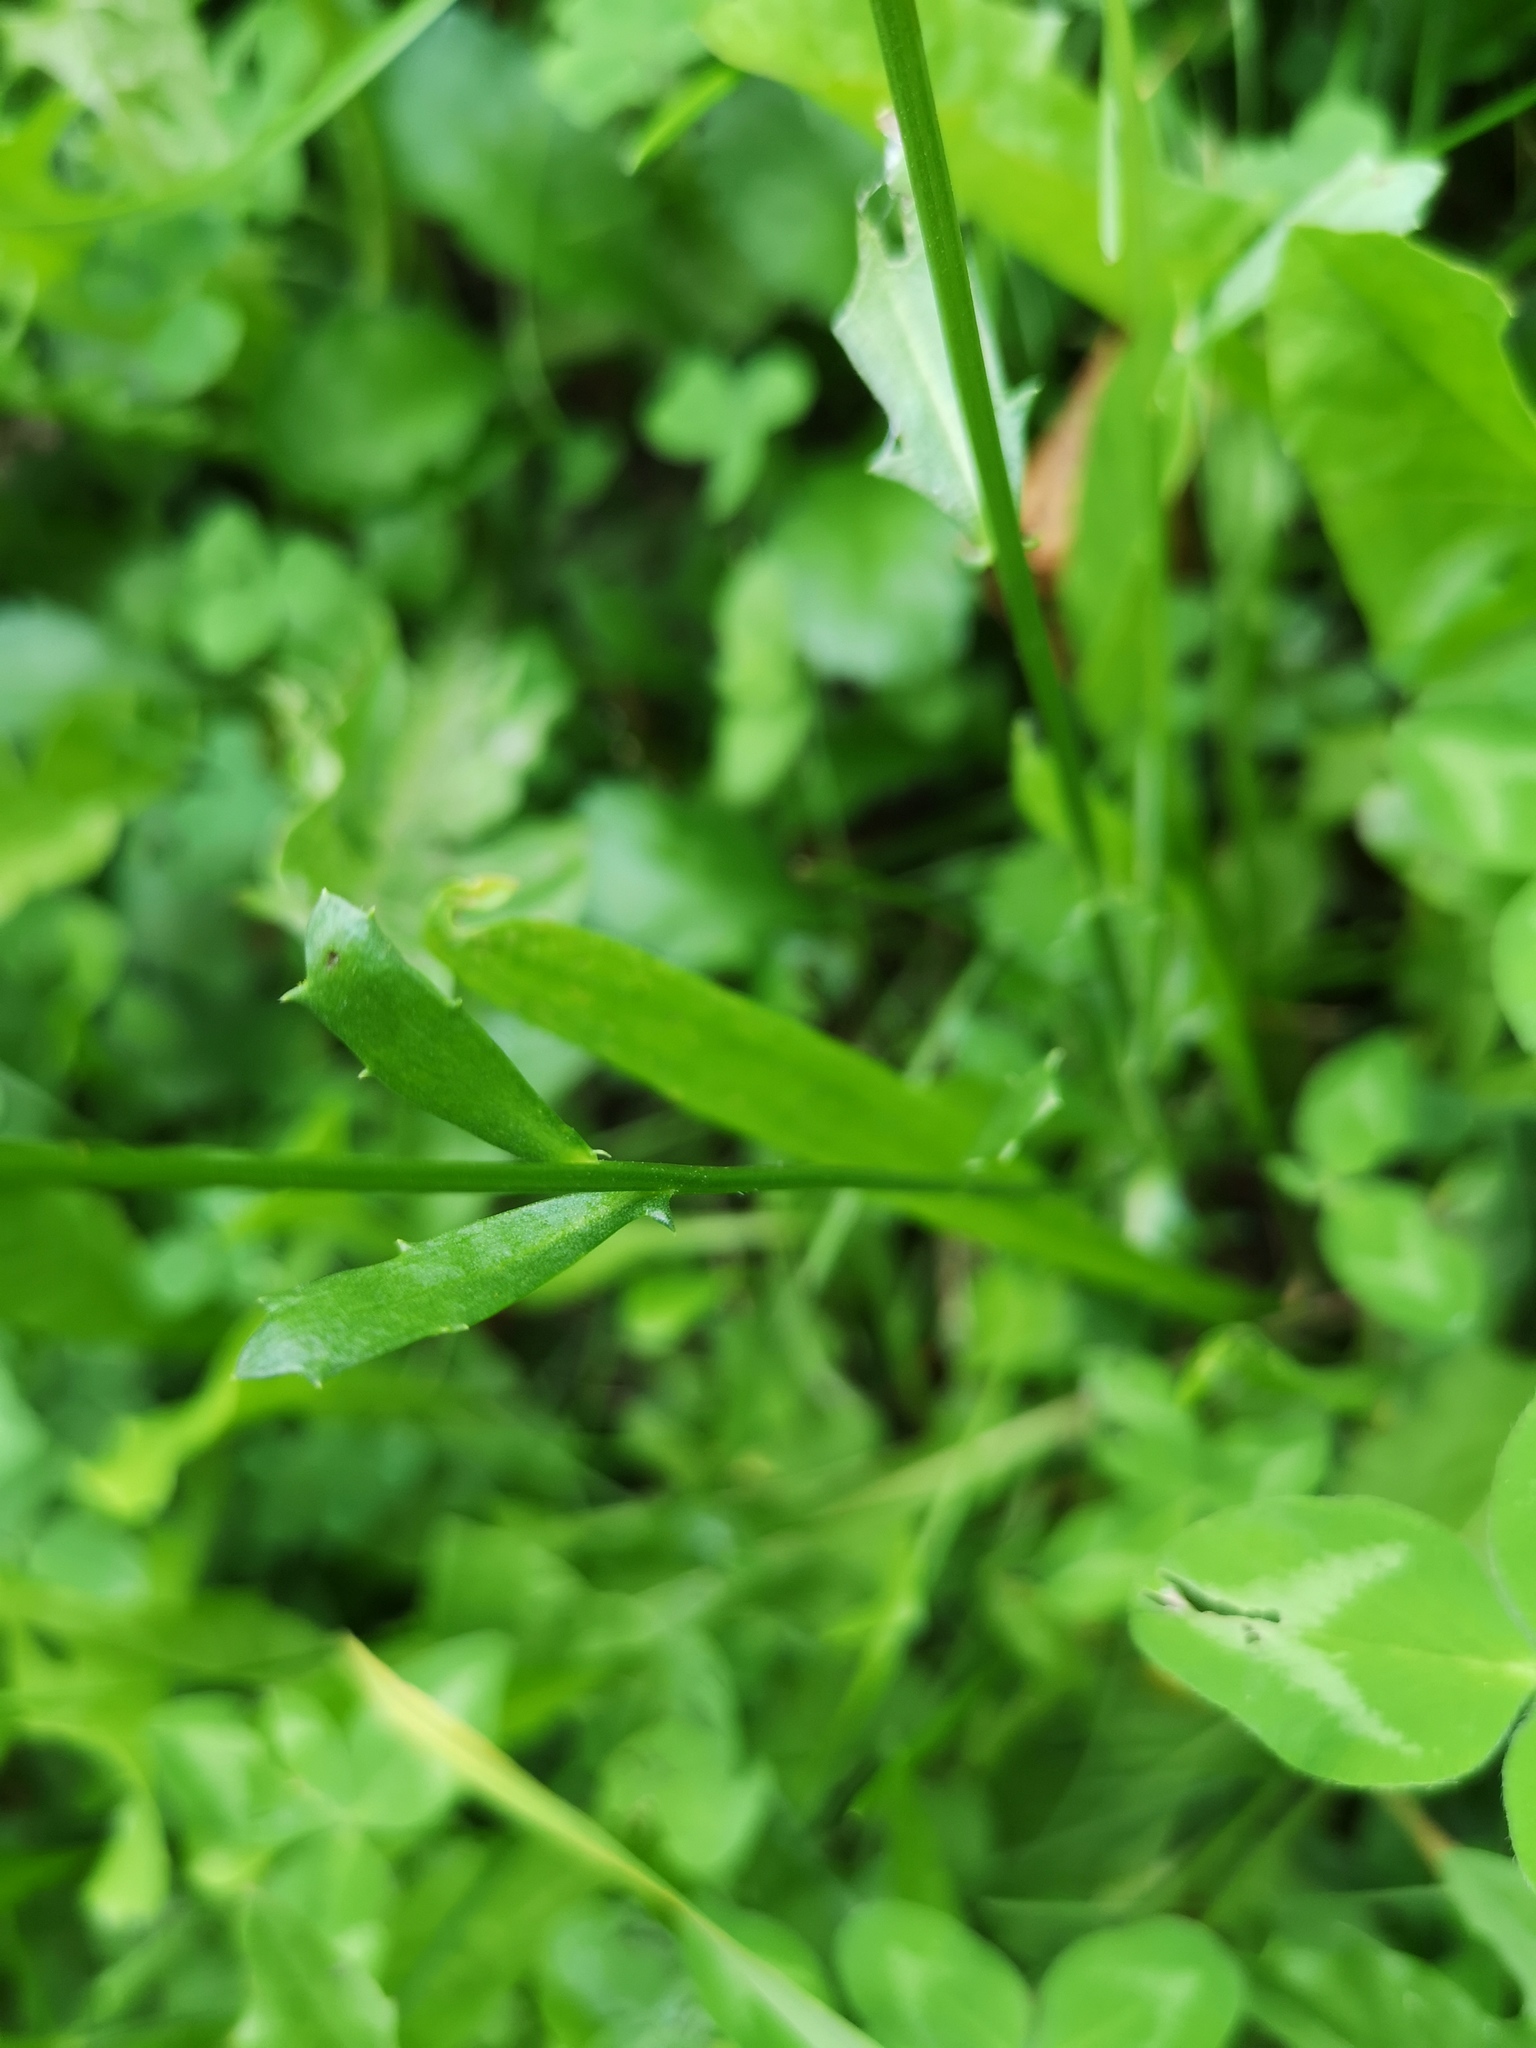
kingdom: Plantae
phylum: Tracheophyta
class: Magnoliopsida
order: Asterales
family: Asteraceae
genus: Leucanthemum
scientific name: Leucanthemum vulgare
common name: Oxeye daisy
